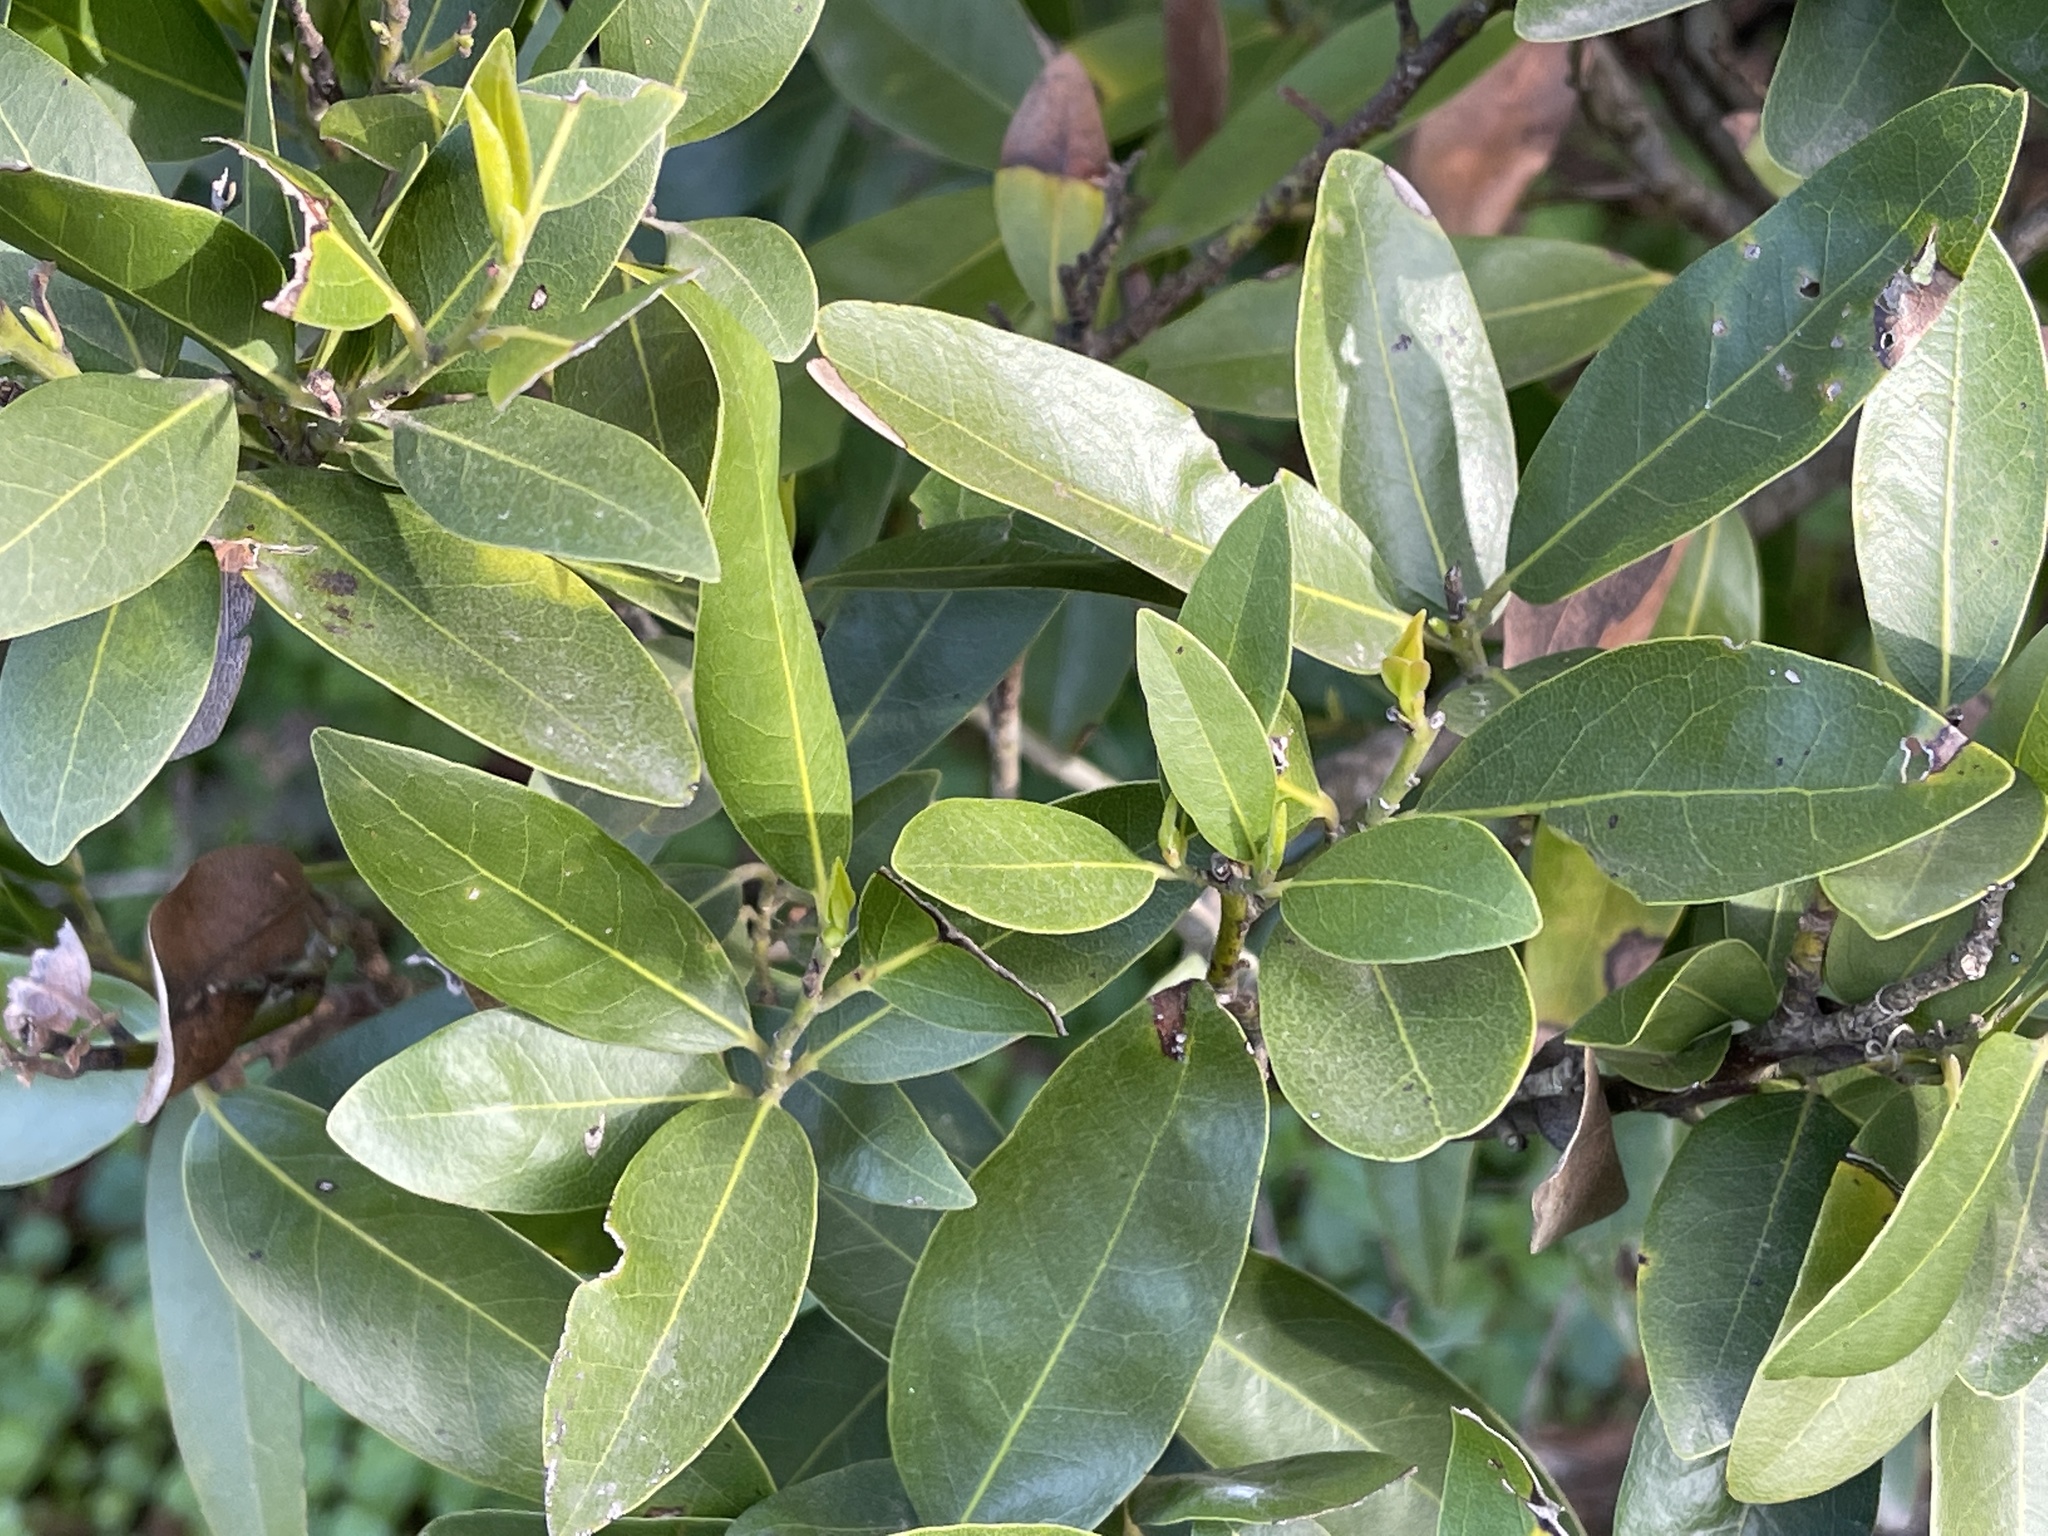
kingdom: Plantae
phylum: Tracheophyta
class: Magnoliopsida
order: Laurales
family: Lauraceae
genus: Umbellularia
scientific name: Umbellularia californica
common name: California bay
